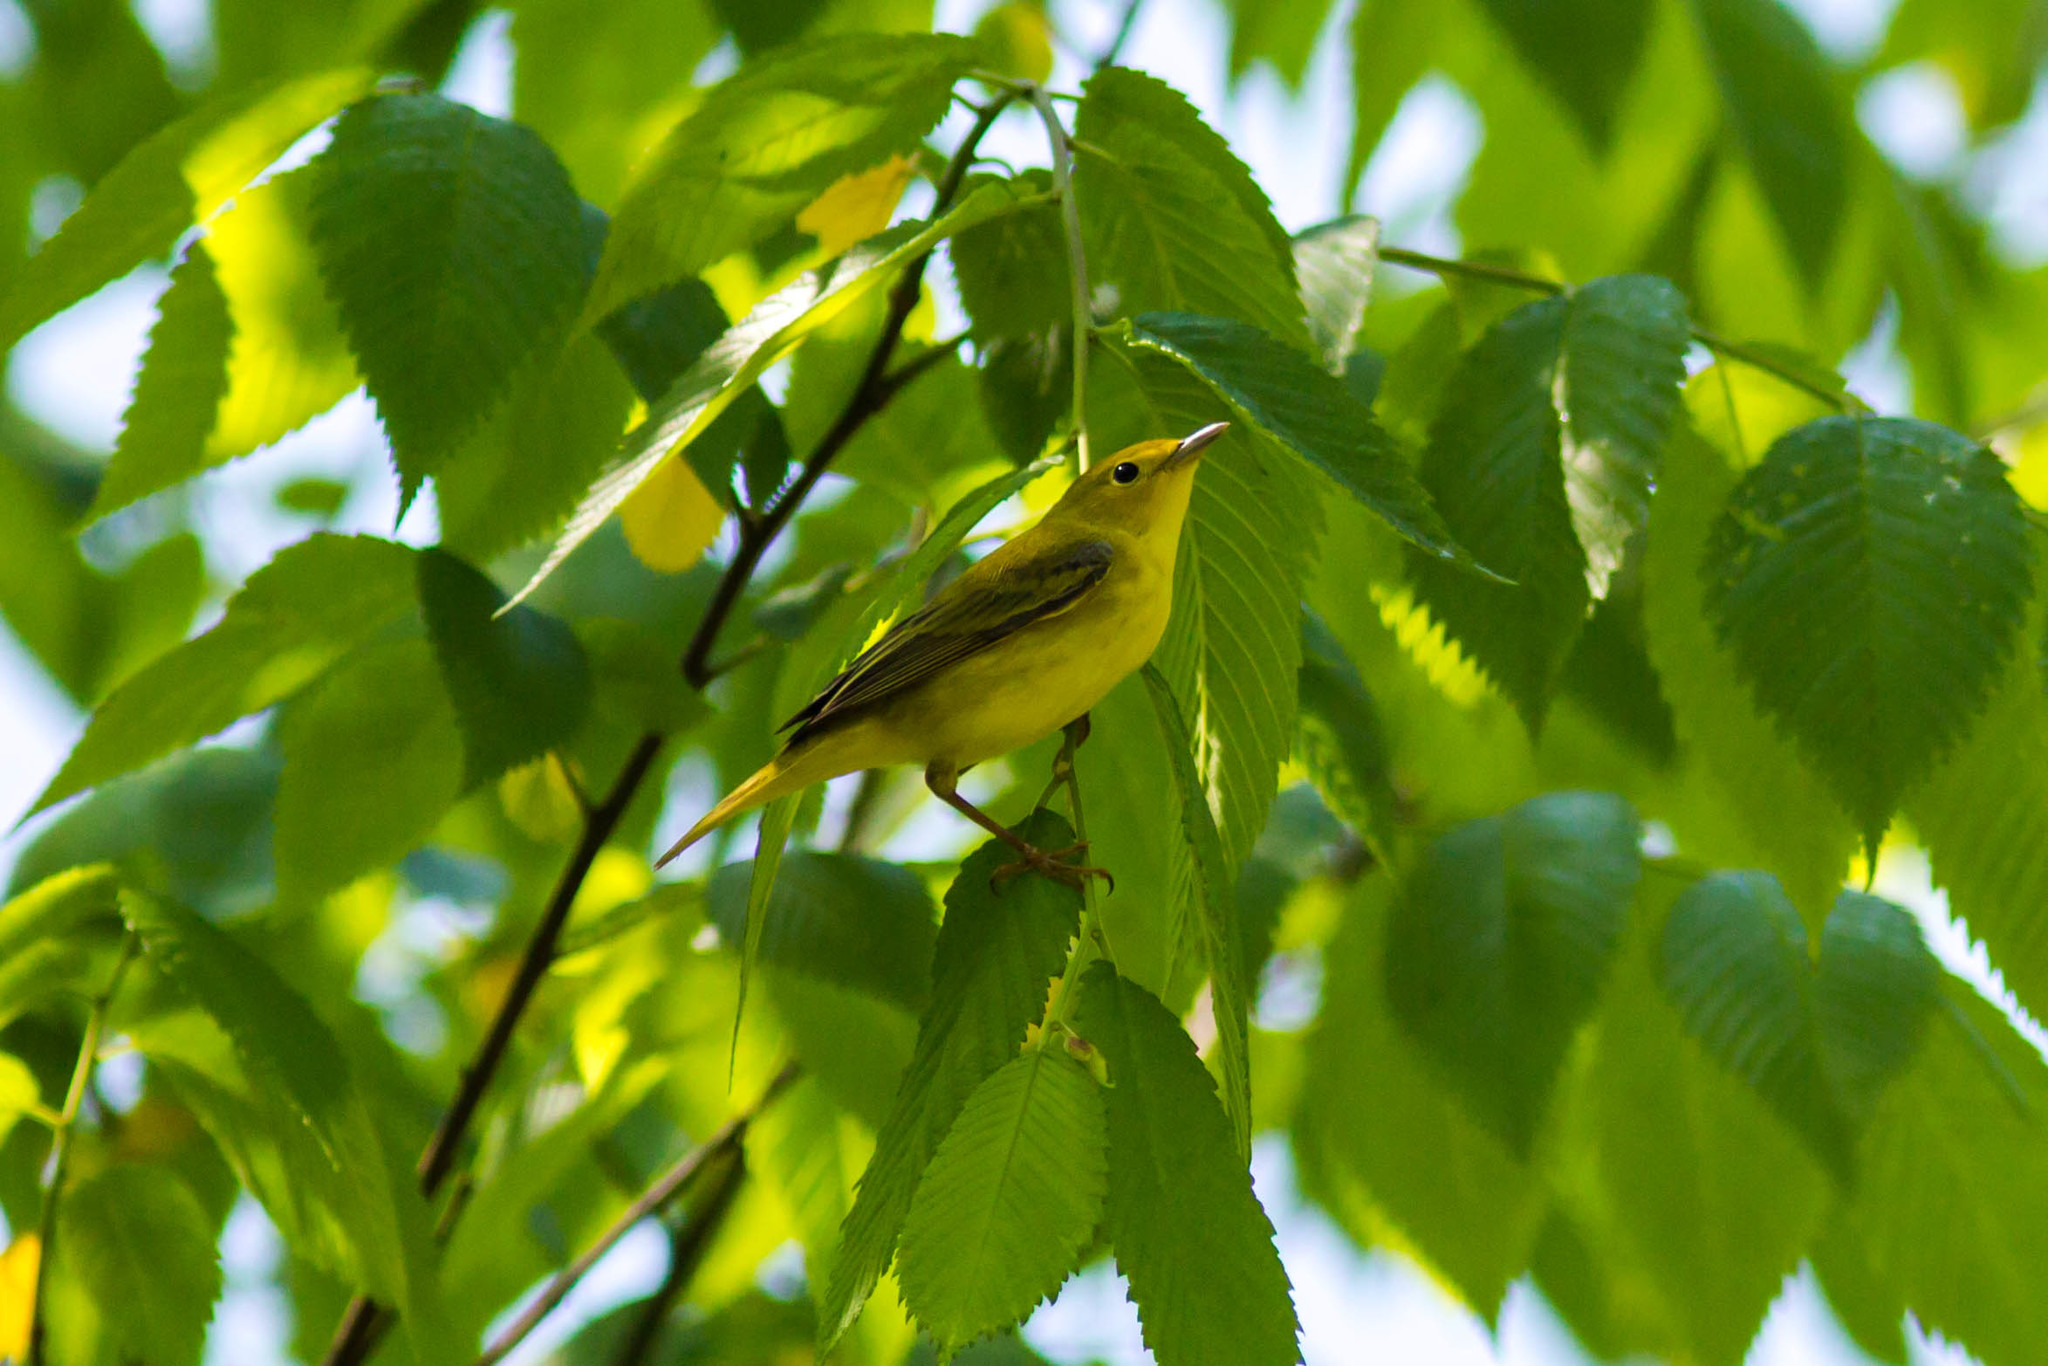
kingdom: Animalia
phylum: Chordata
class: Aves
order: Passeriformes
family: Parulidae
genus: Setophaga
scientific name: Setophaga petechia
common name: Yellow warbler
